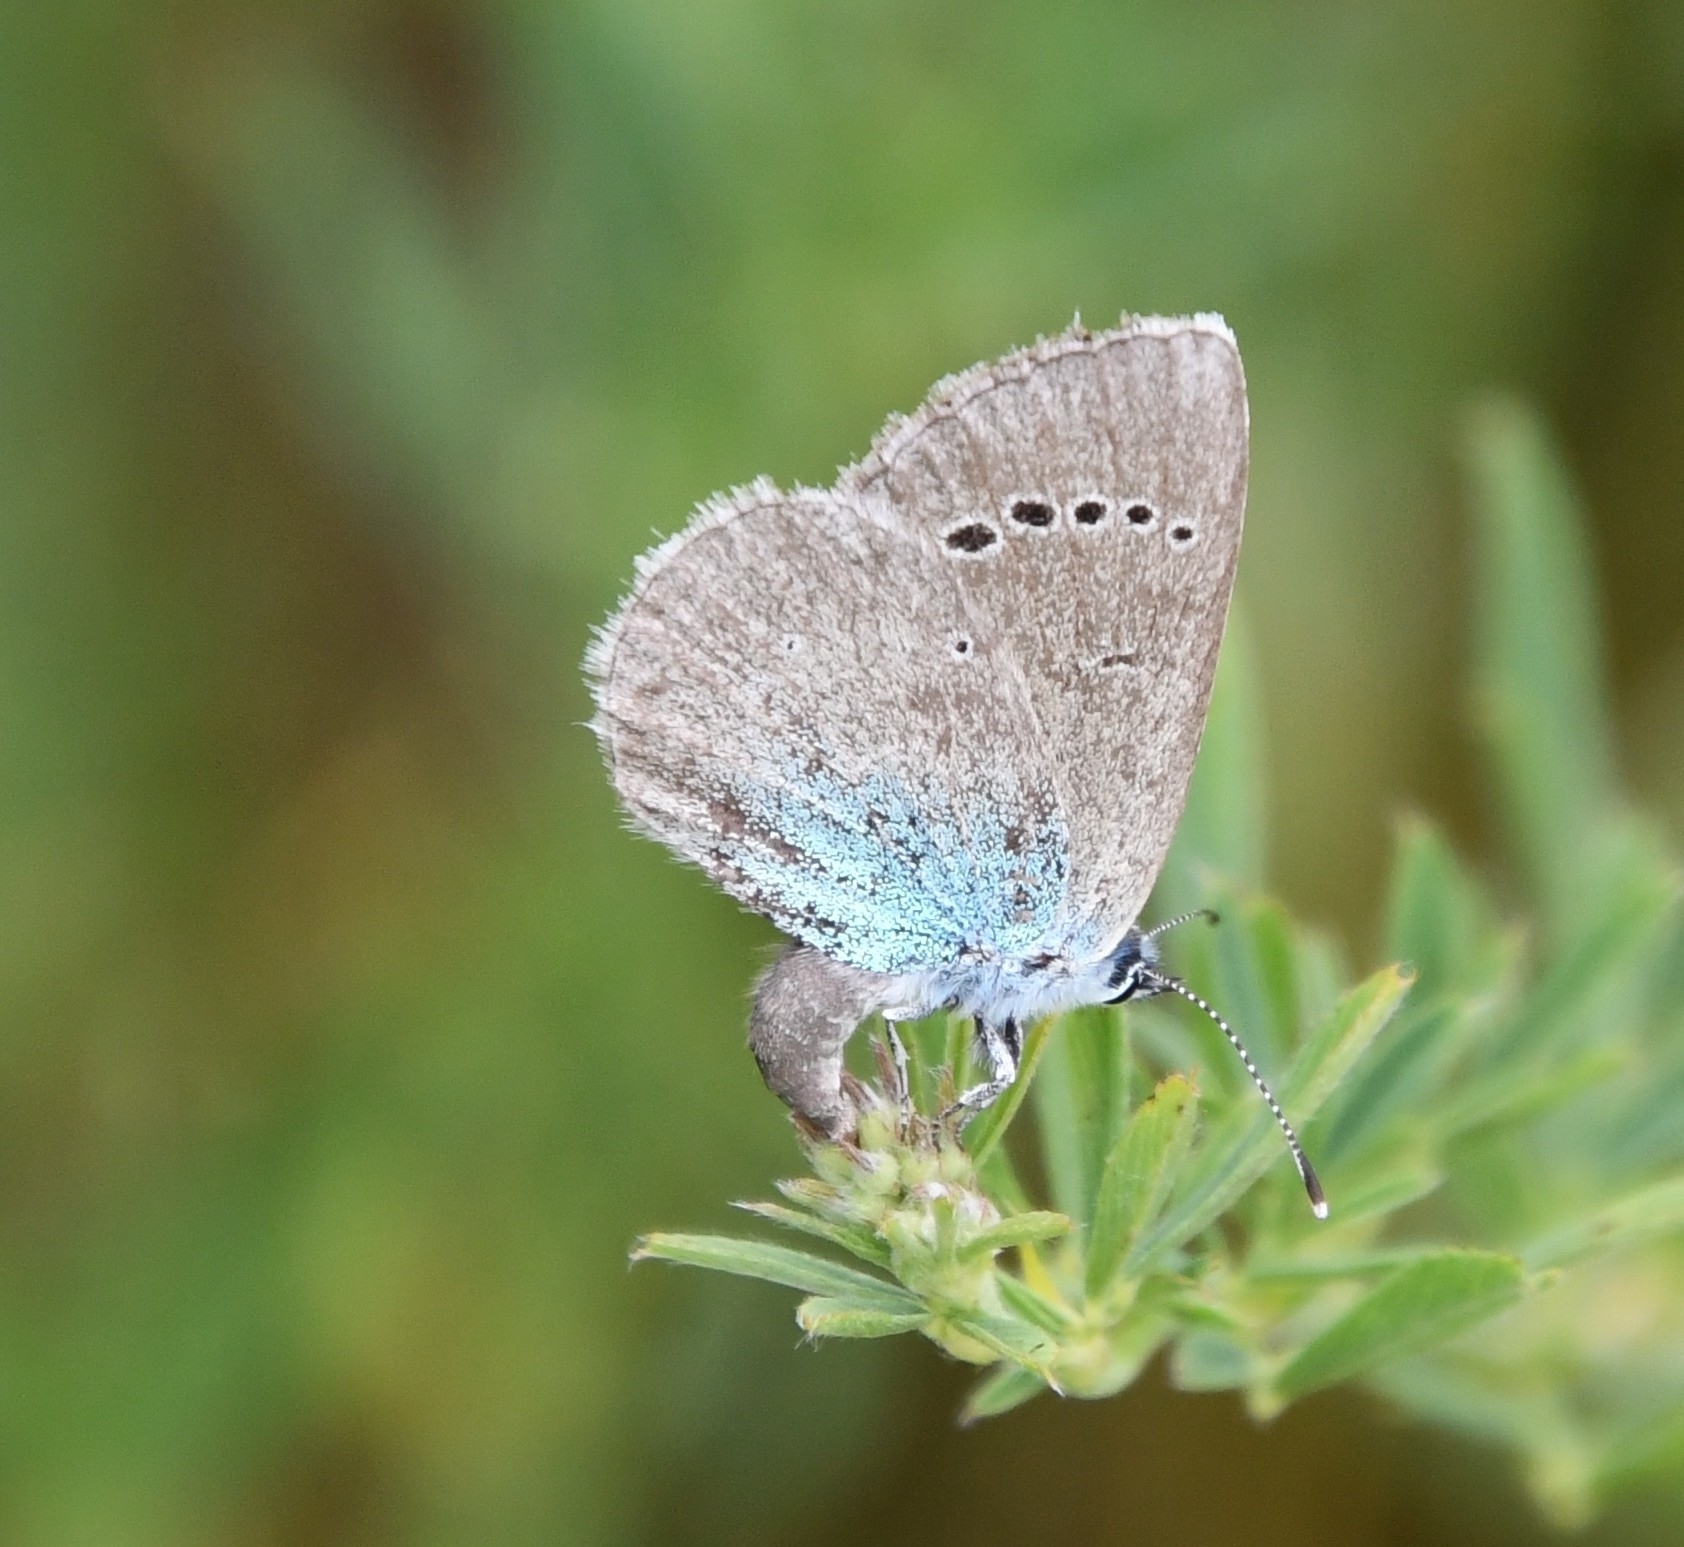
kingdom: Animalia
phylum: Arthropoda
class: Insecta
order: Lepidoptera
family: Lycaenidae
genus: Glaucopsyche
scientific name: Glaucopsyche alexis
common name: Green-underside blue
